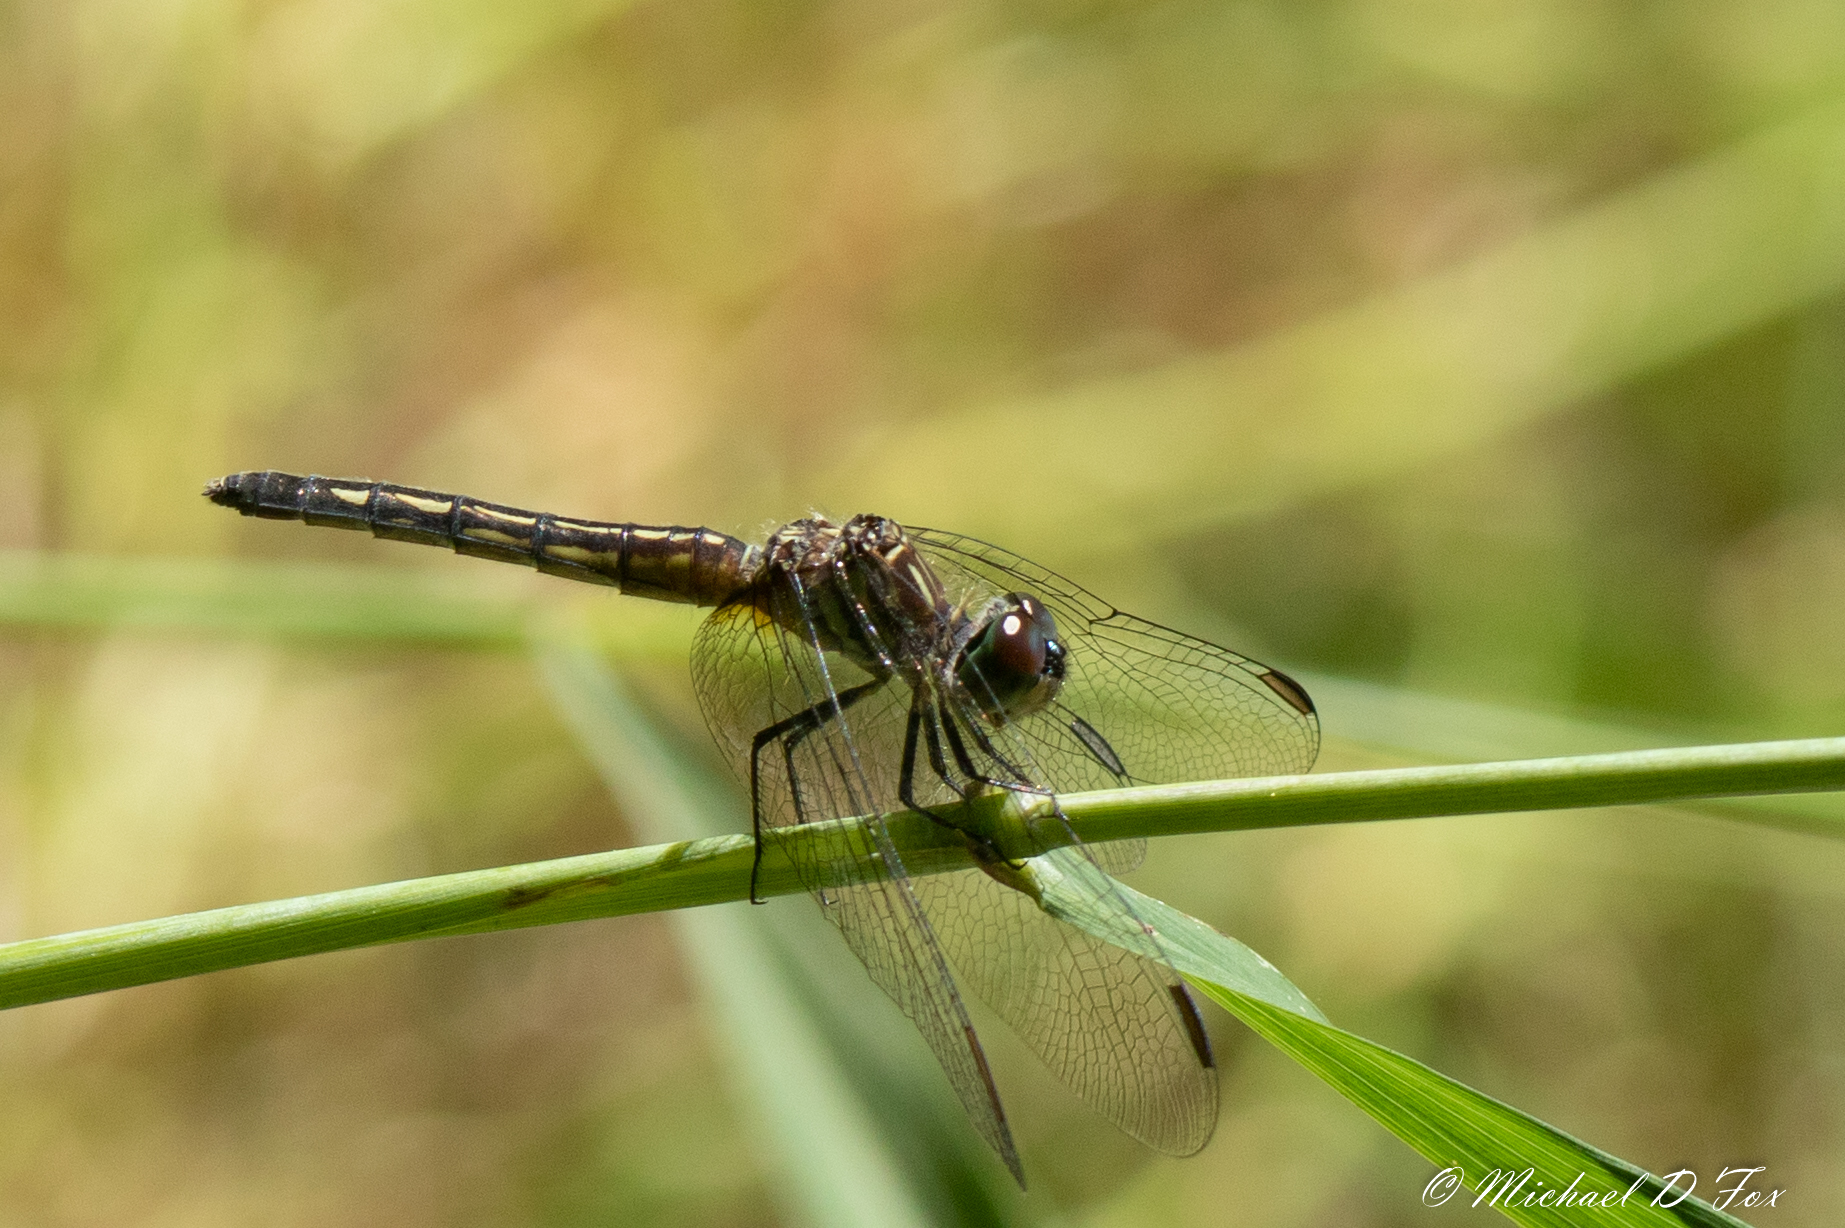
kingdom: Animalia
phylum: Arthropoda
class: Insecta
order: Odonata
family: Libellulidae
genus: Pachydiplax
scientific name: Pachydiplax longipennis
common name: Blue dasher
